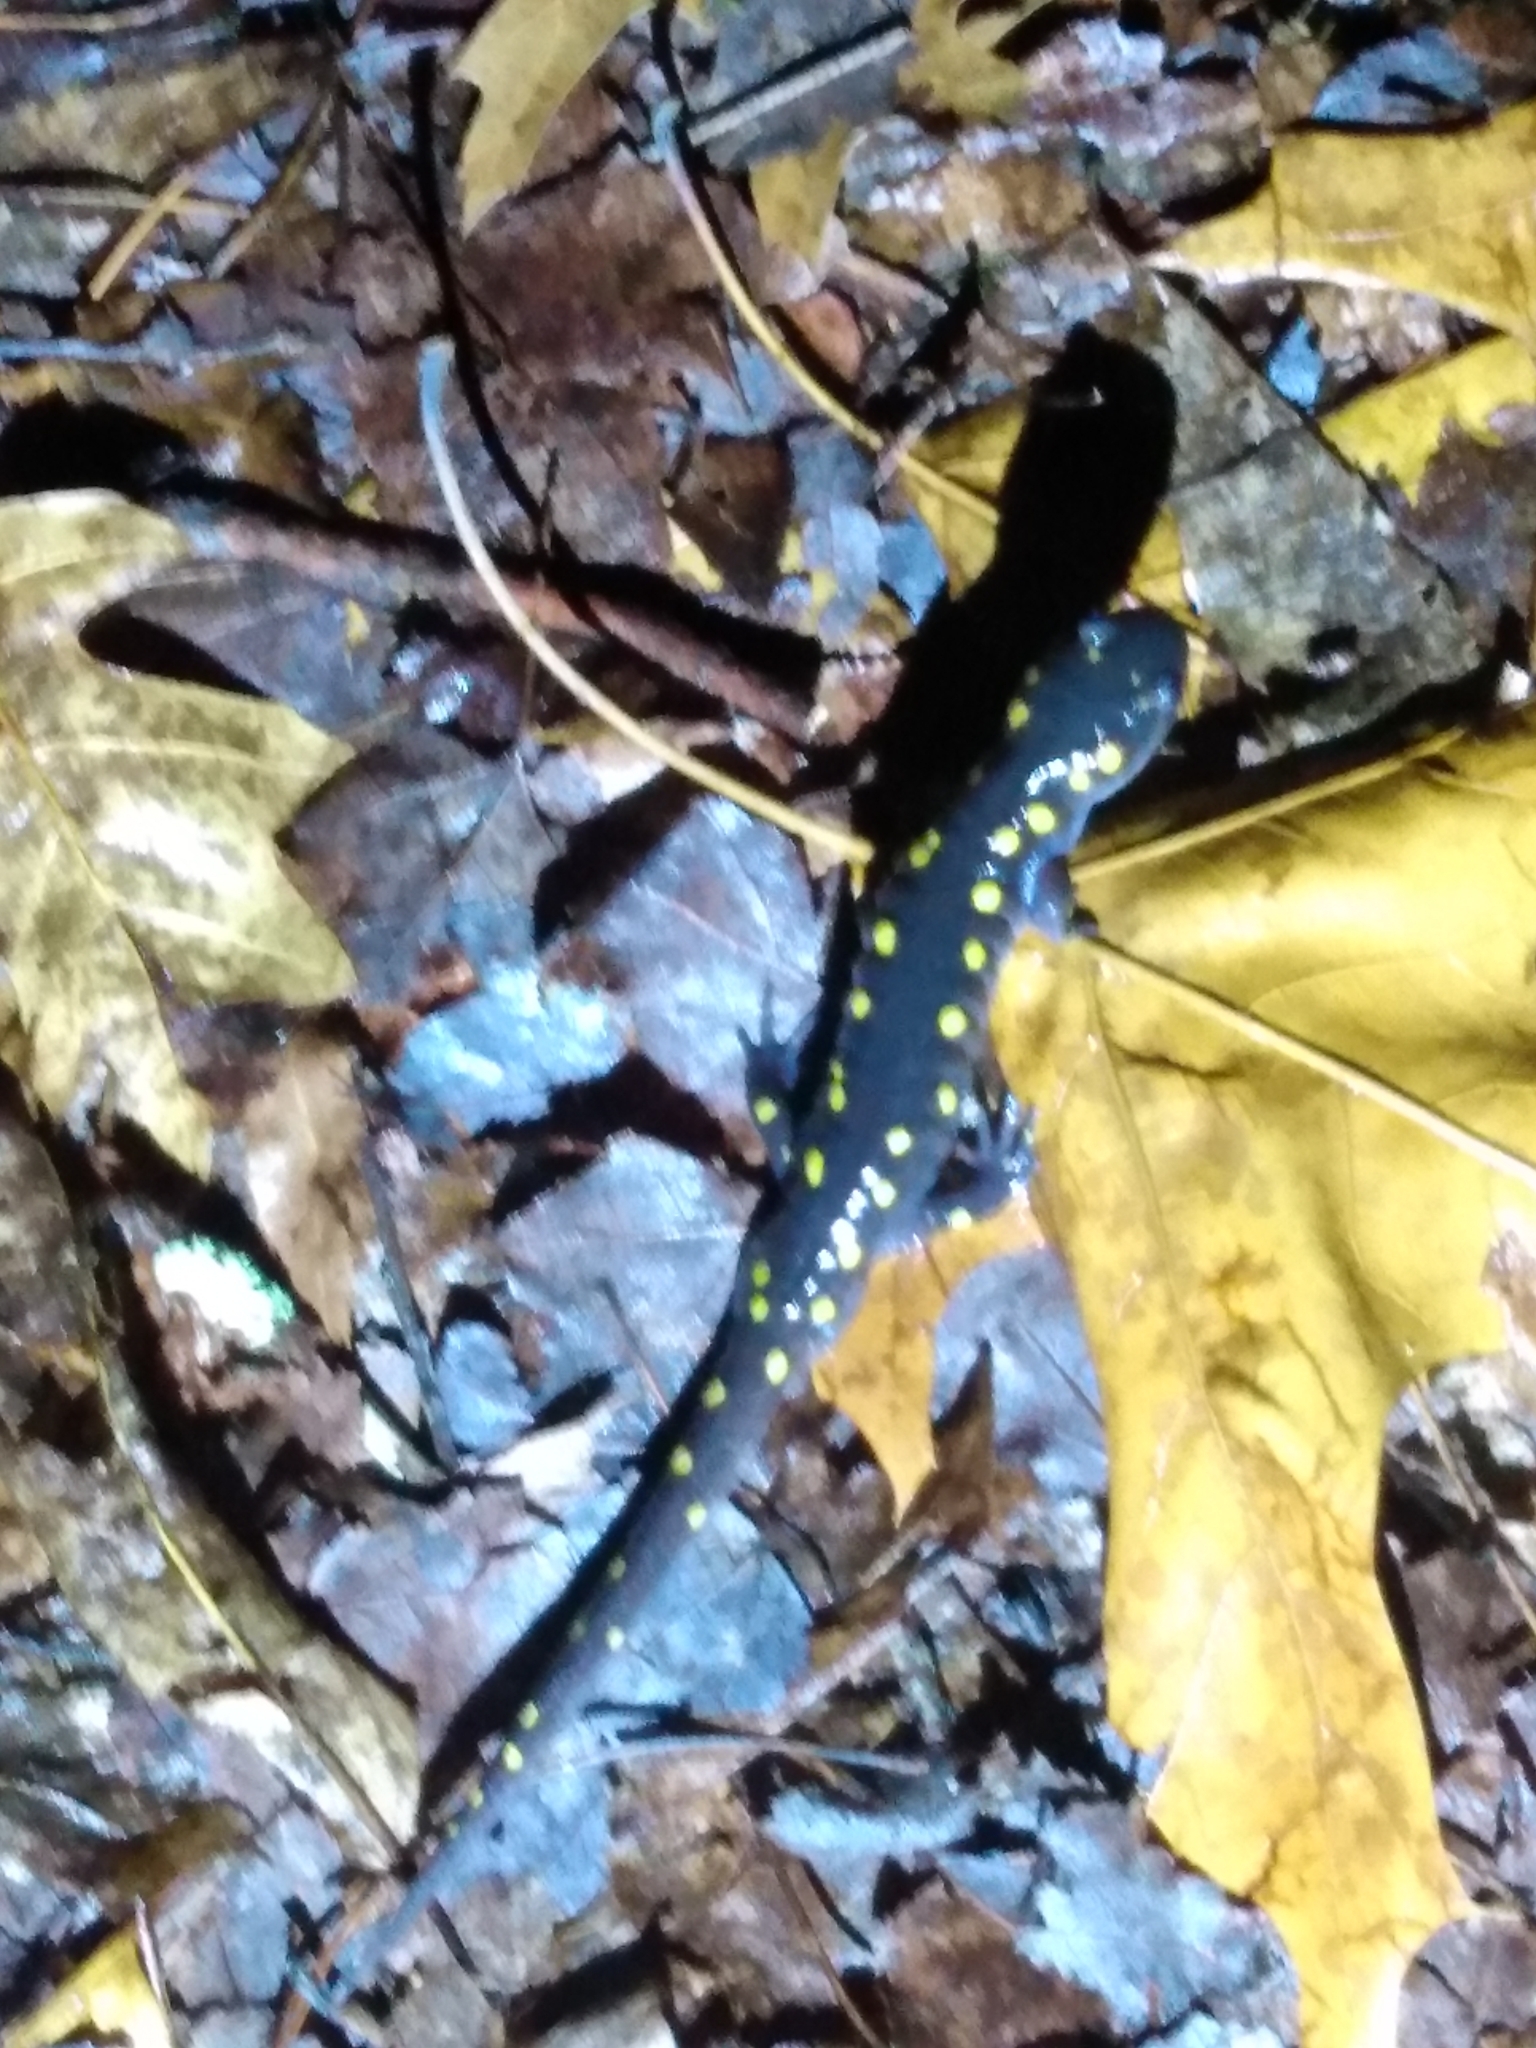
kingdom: Animalia
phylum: Chordata
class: Amphibia
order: Caudata
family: Ambystomatidae
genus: Ambystoma
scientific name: Ambystoma maculatum
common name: Spotted salamander
